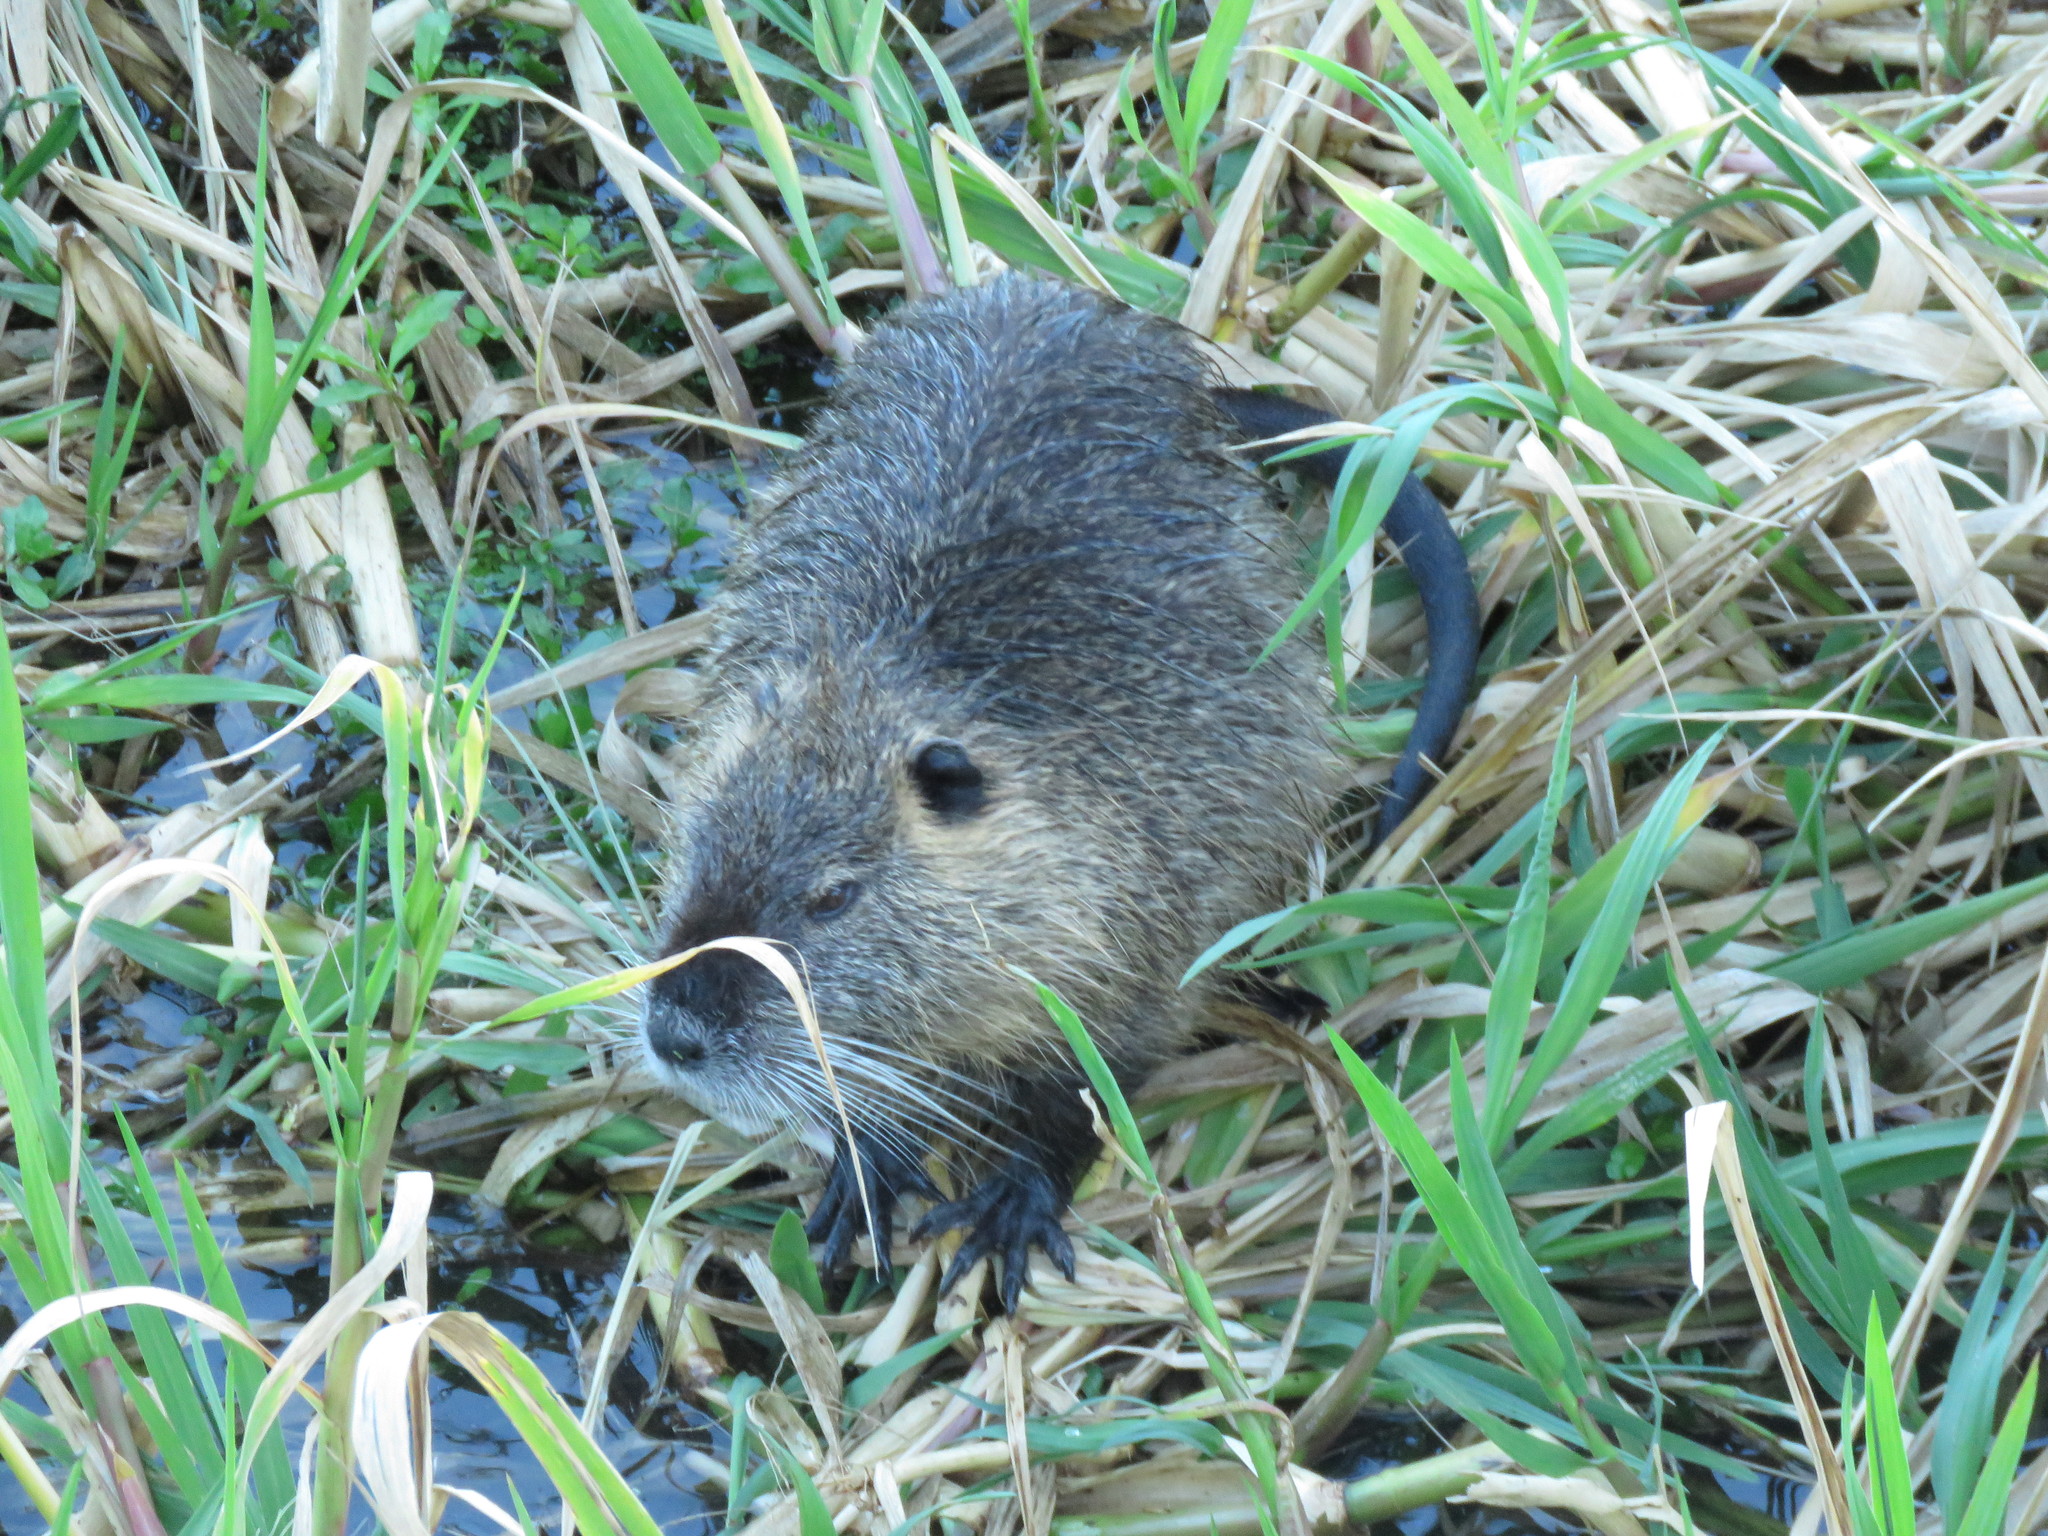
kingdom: Animalia
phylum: Chordata
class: Mammalia
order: Rodentia
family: Myocastoridae
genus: Myocastor
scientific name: Myocastor coypus
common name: Coypu
